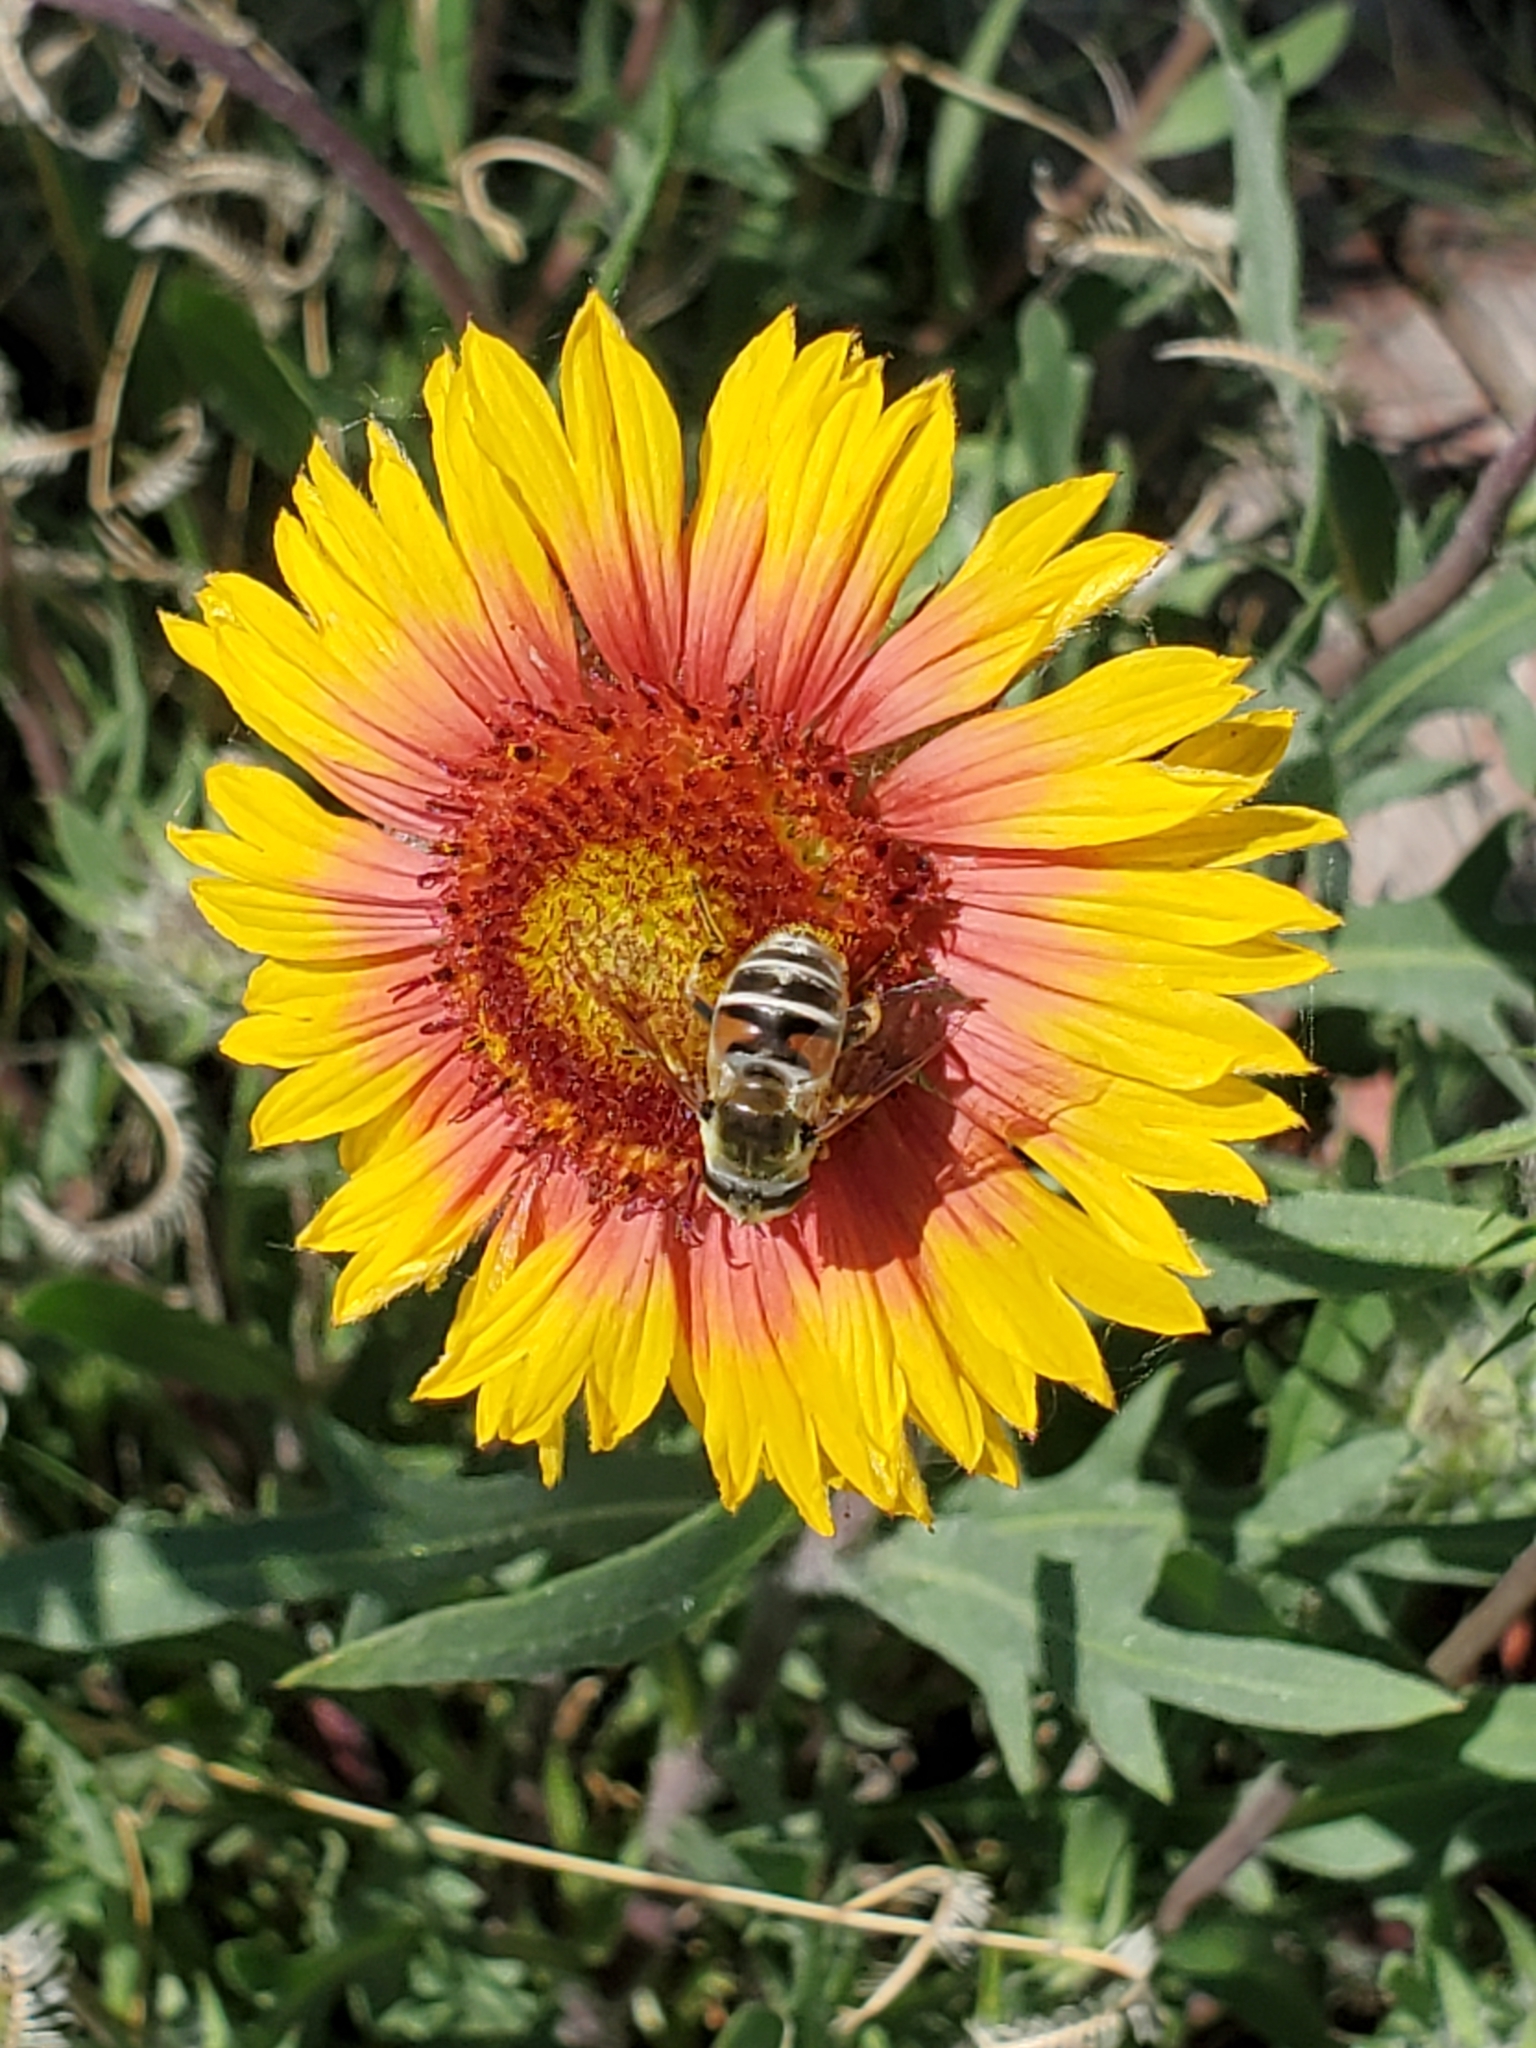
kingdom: Animalia
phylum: Arthropoda
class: Insecta
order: Diptera
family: Syrphidae
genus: Eristalis
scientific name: Eristalis stipator
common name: Yellow-shouldered drone fly
